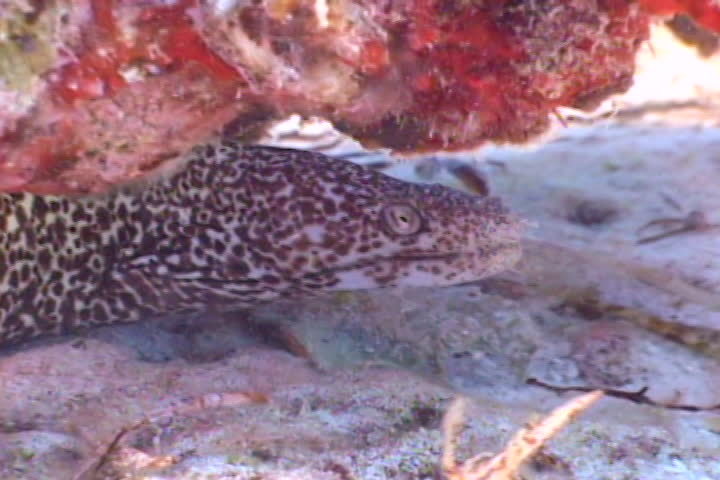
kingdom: Animalia
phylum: Chordata
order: Anguilliformes
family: Muraenidae
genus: Gymnothorax
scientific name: Gymnothorax moringa
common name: Spotted moray
